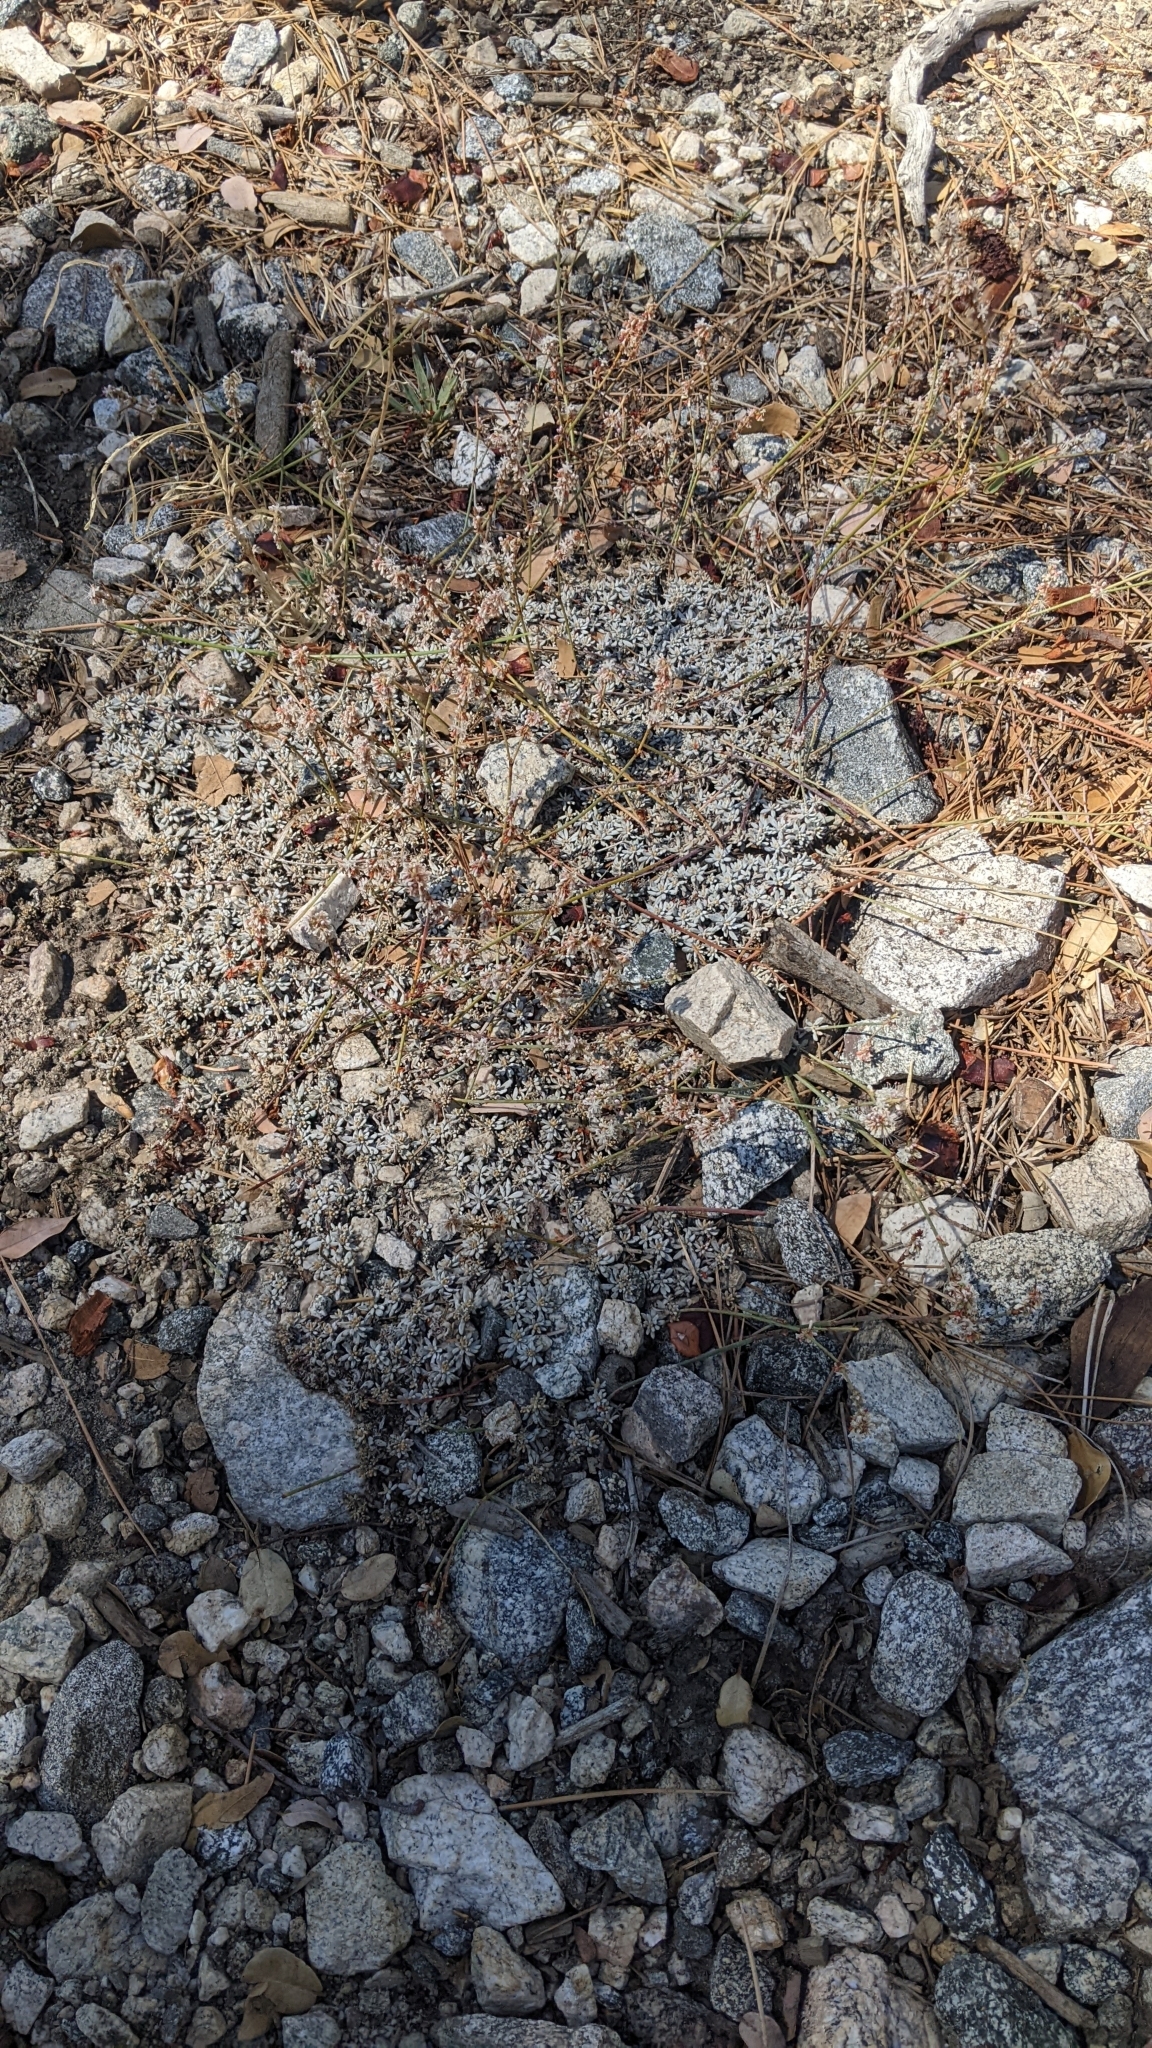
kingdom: Plantae
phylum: Tracheophyta
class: Magnoliopsida
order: Caryophyllales
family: Polygonaceae
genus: Eriogonum
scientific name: Eriogonum wrightii
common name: Bastard-sage
